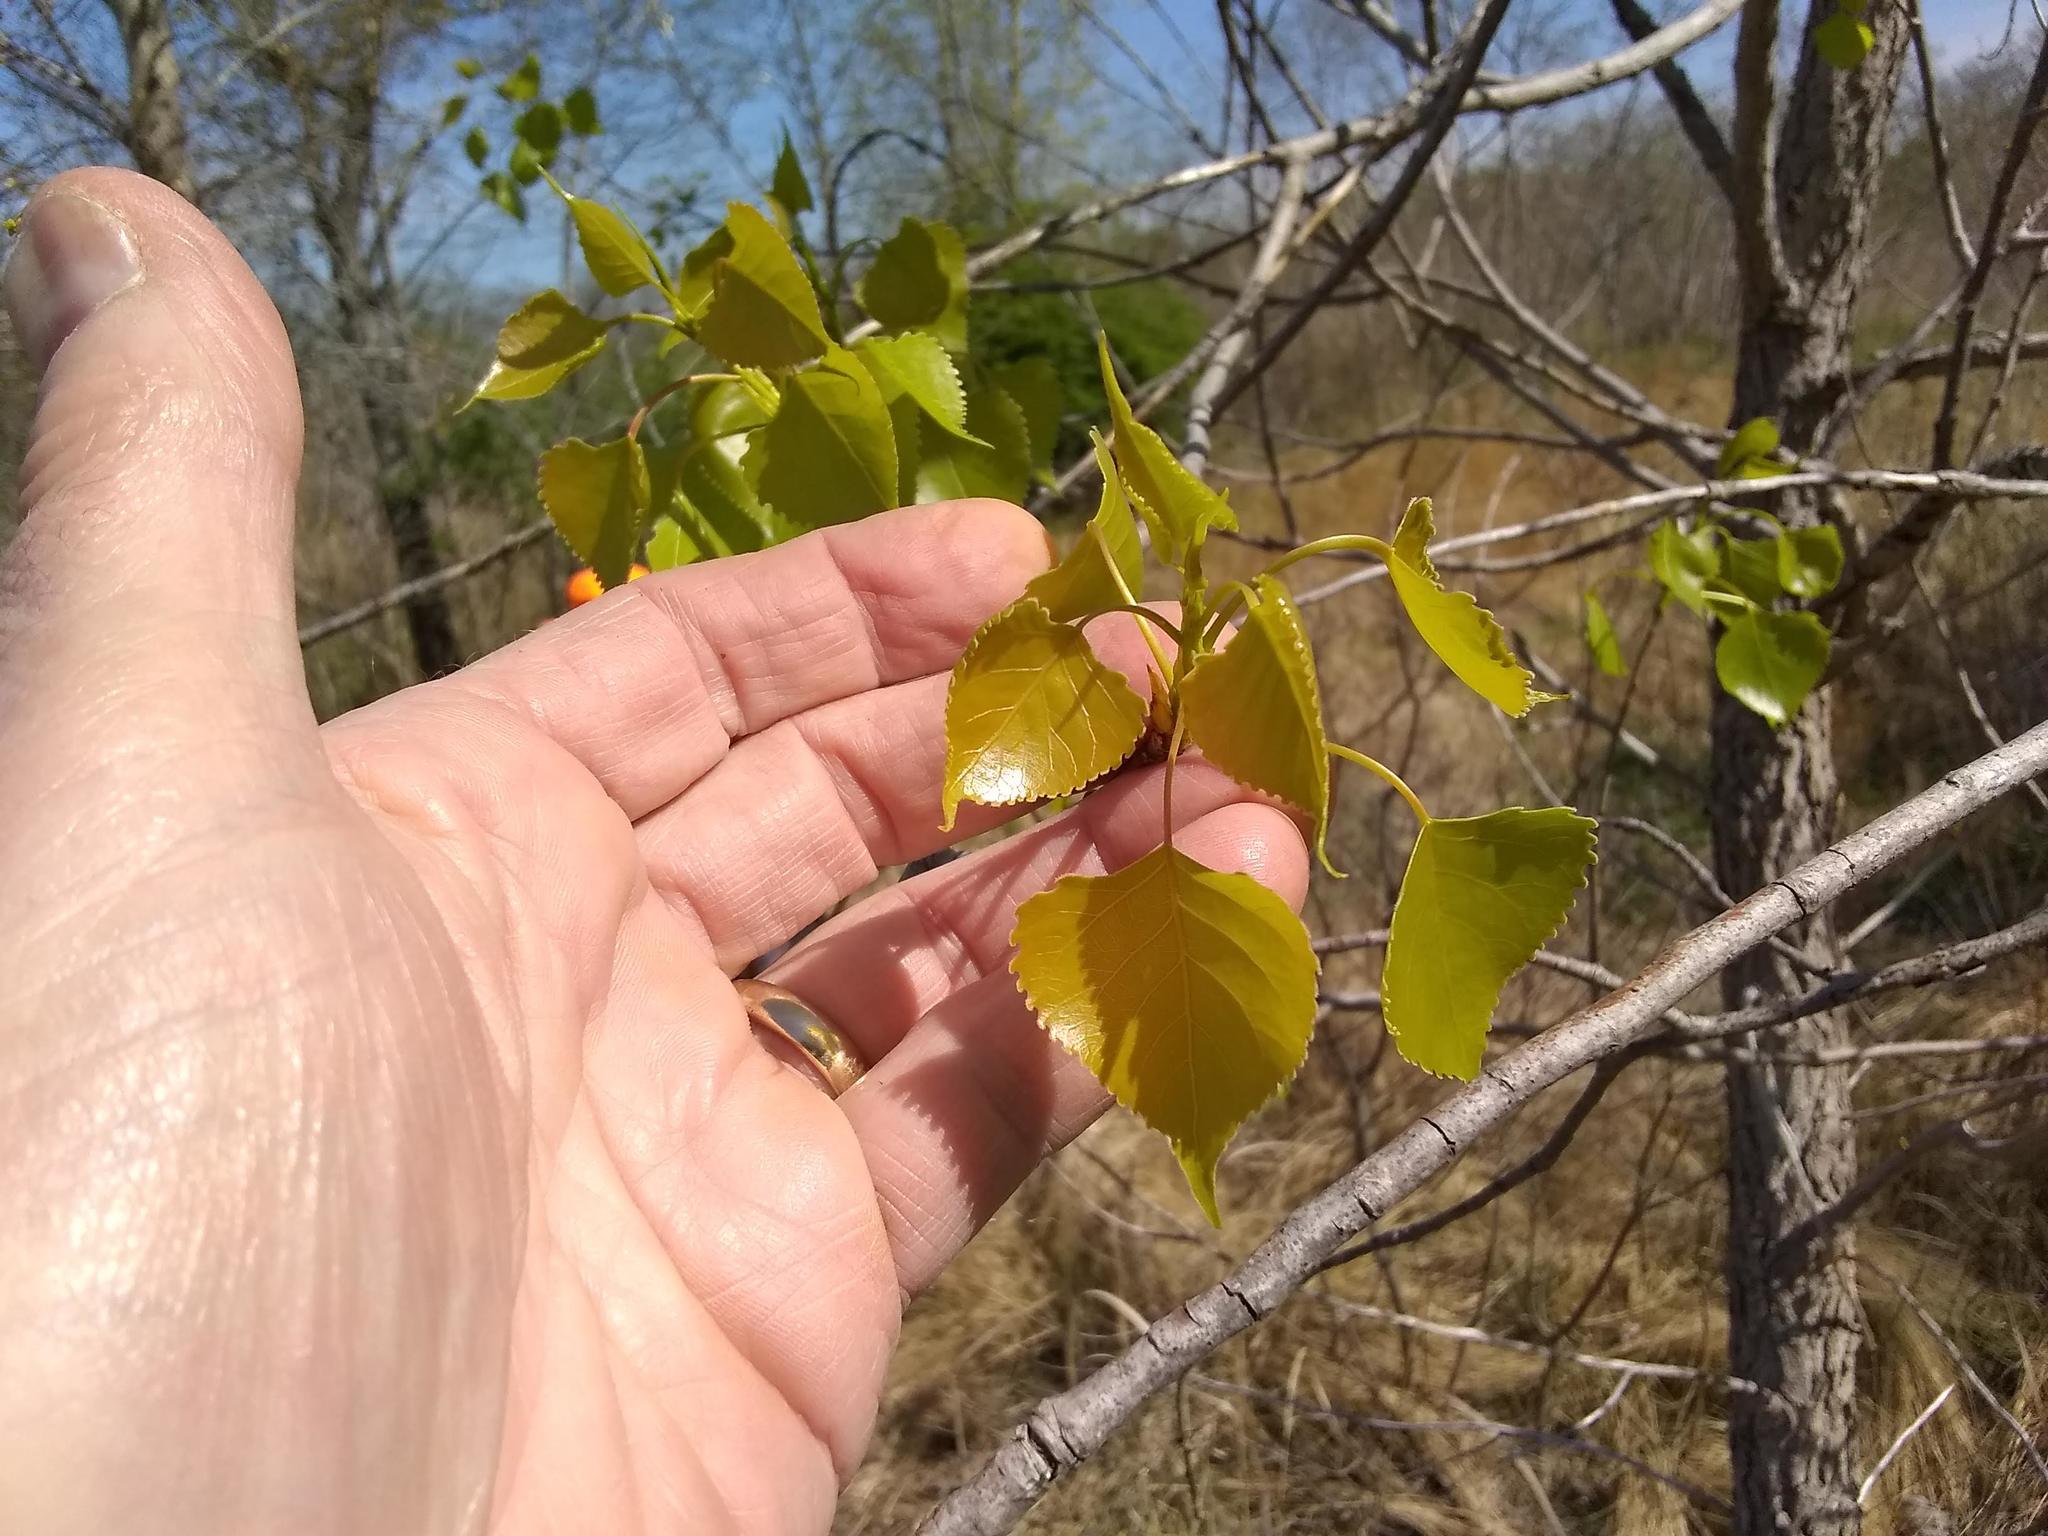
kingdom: Plantae
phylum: Tracheophyta
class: Magnoliopsida
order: Malpighiales
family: Salicaceae
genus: Populus
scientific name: Populus deltoides
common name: Eastern cottonwood
